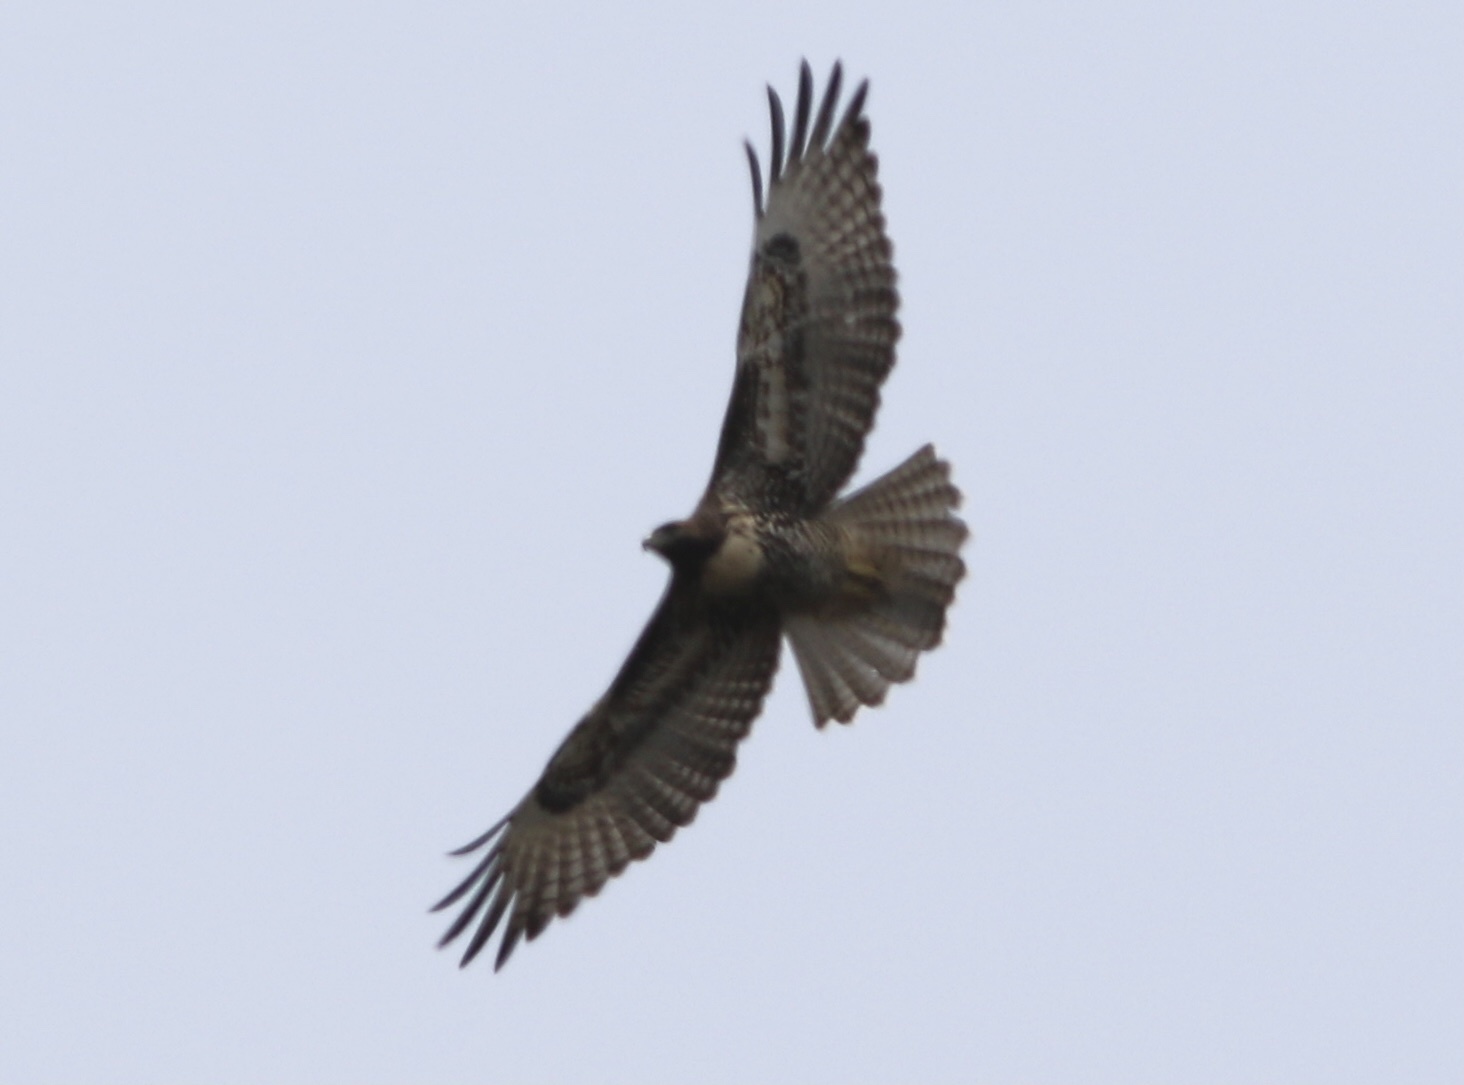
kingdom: Animalia
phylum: Chordata
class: Aves
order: Accipitriformes
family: Accipitridae
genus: Buteo
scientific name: Buteo jamaicensis
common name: Red-tailed hawk
